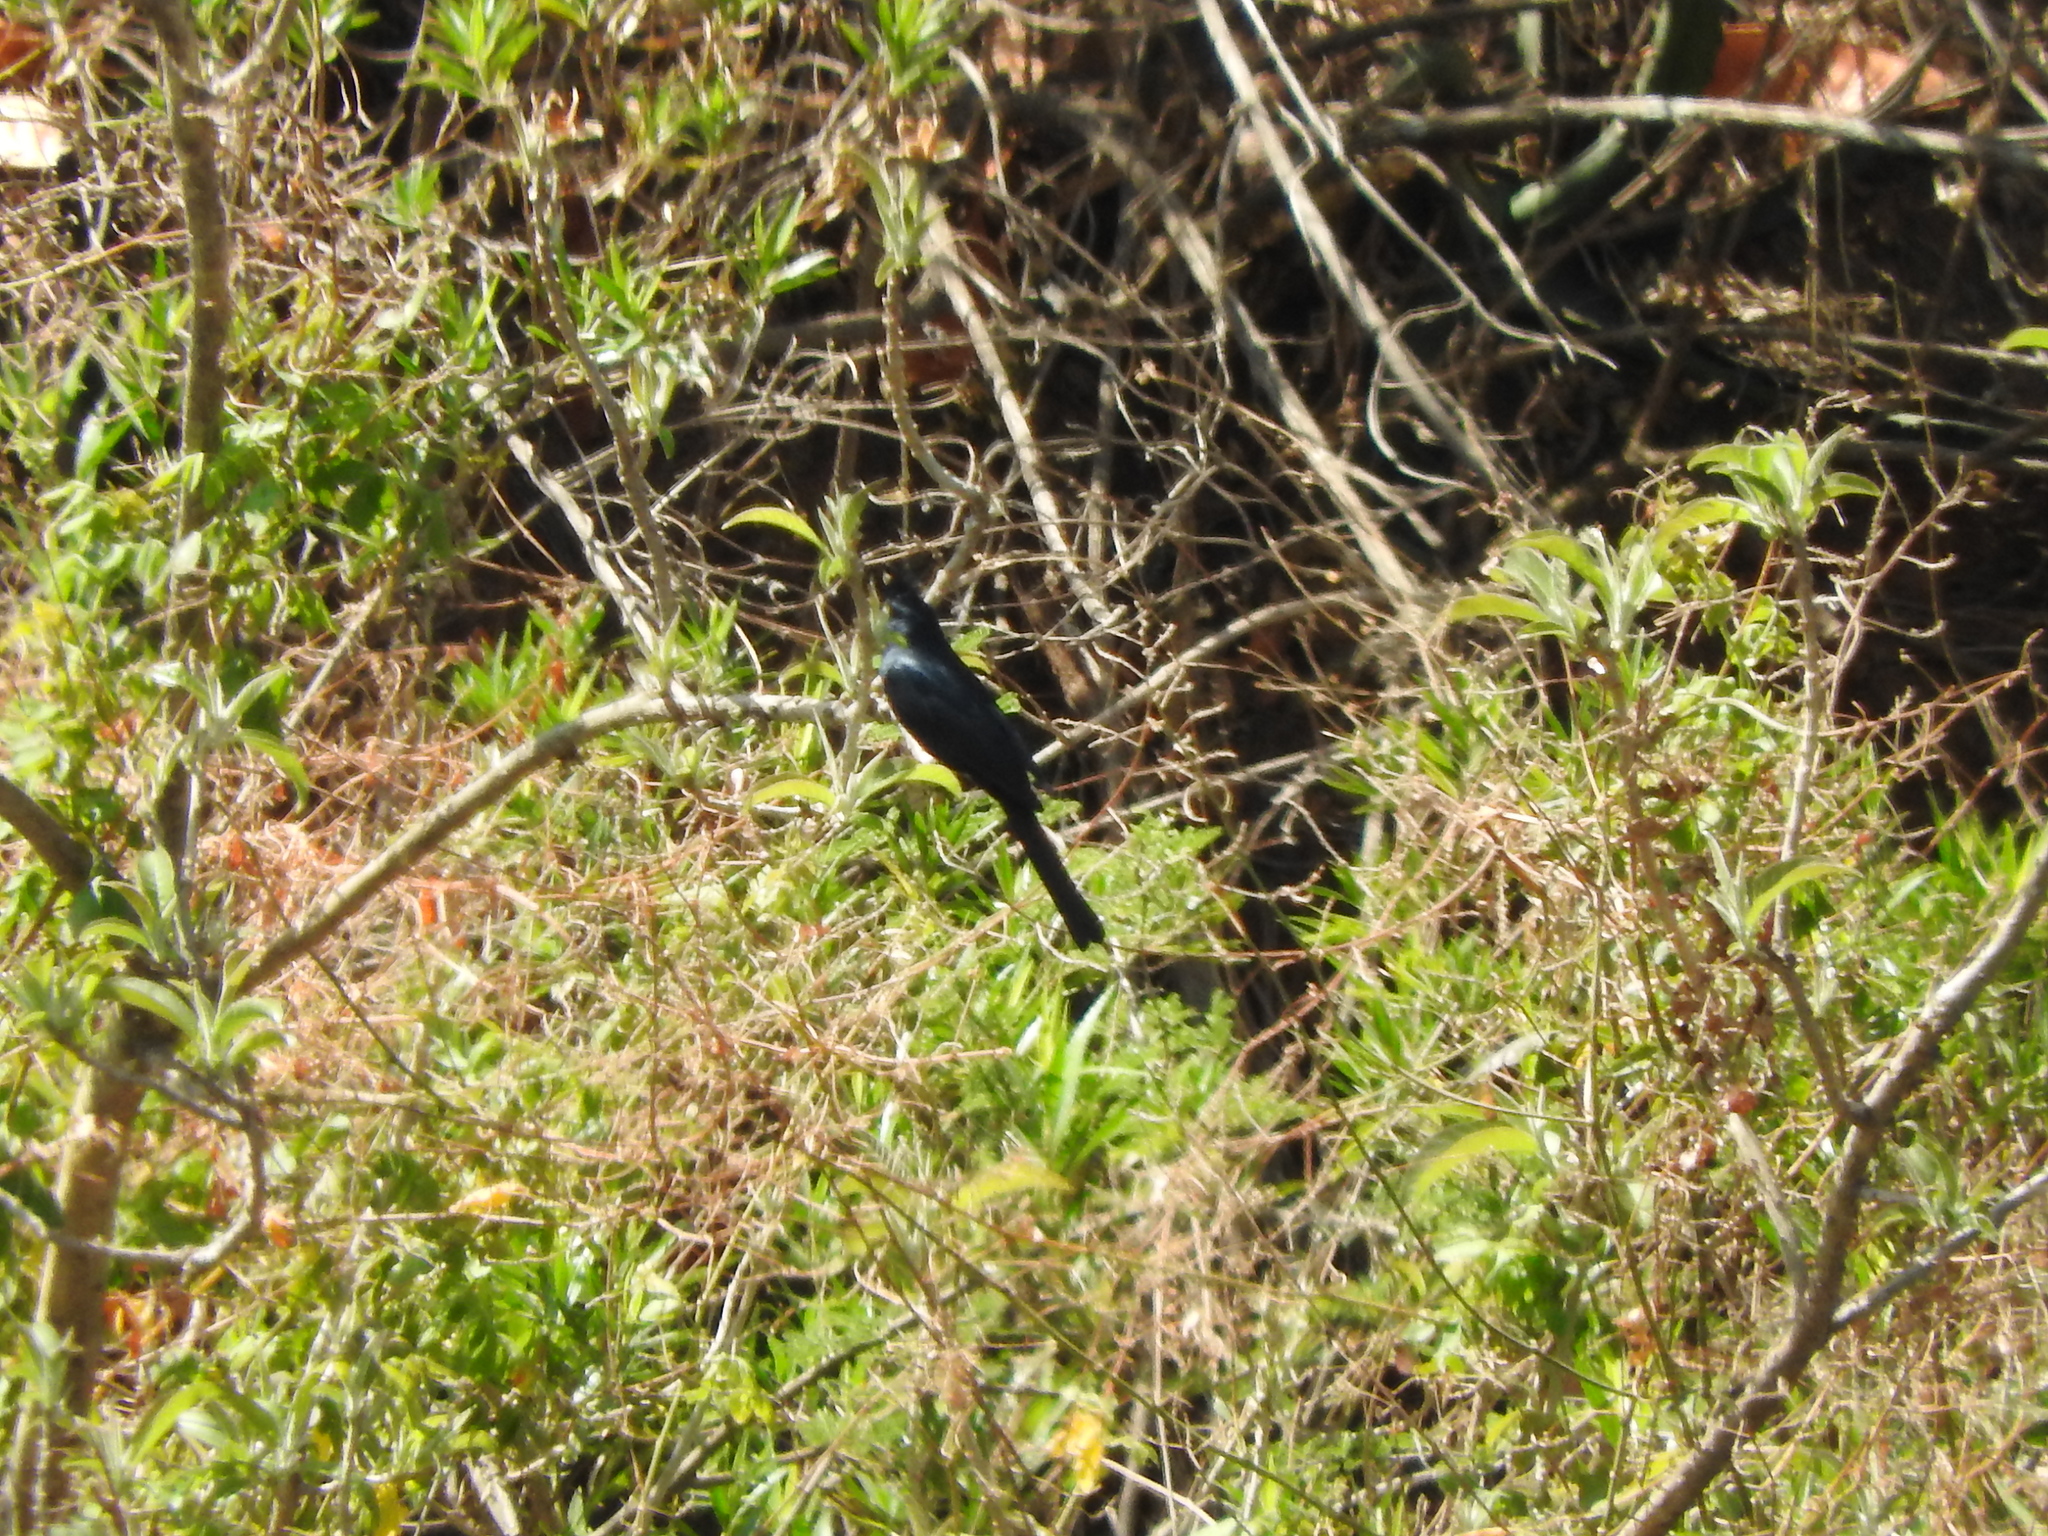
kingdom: Animalia
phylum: Chordata
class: Aves
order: Passeriformes
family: Ptilogonatidae
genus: Phainopepla
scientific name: Phainopepla nitens
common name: Phainopepla
